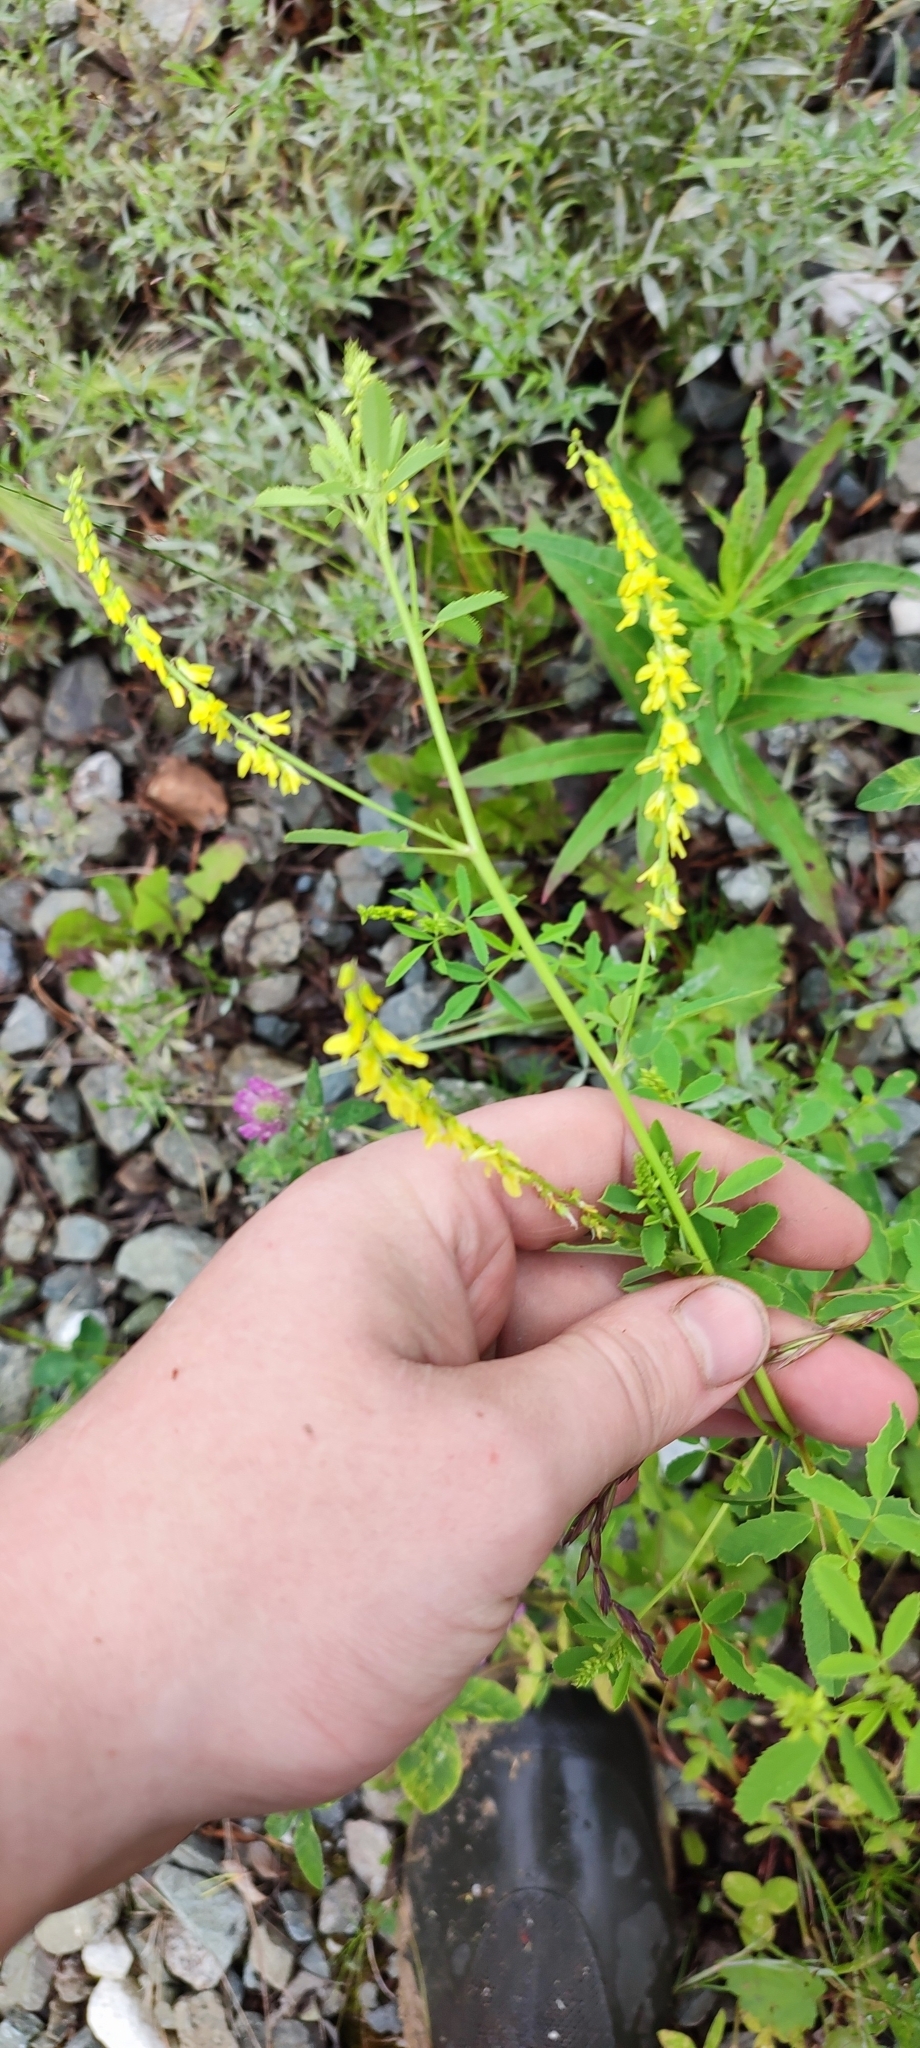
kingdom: Plantae
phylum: Tracheophyta
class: Magnoliopsida
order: Fabales
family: Fabaceae
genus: Melilotus
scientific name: Melilotus officinalis
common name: Sweetclover
